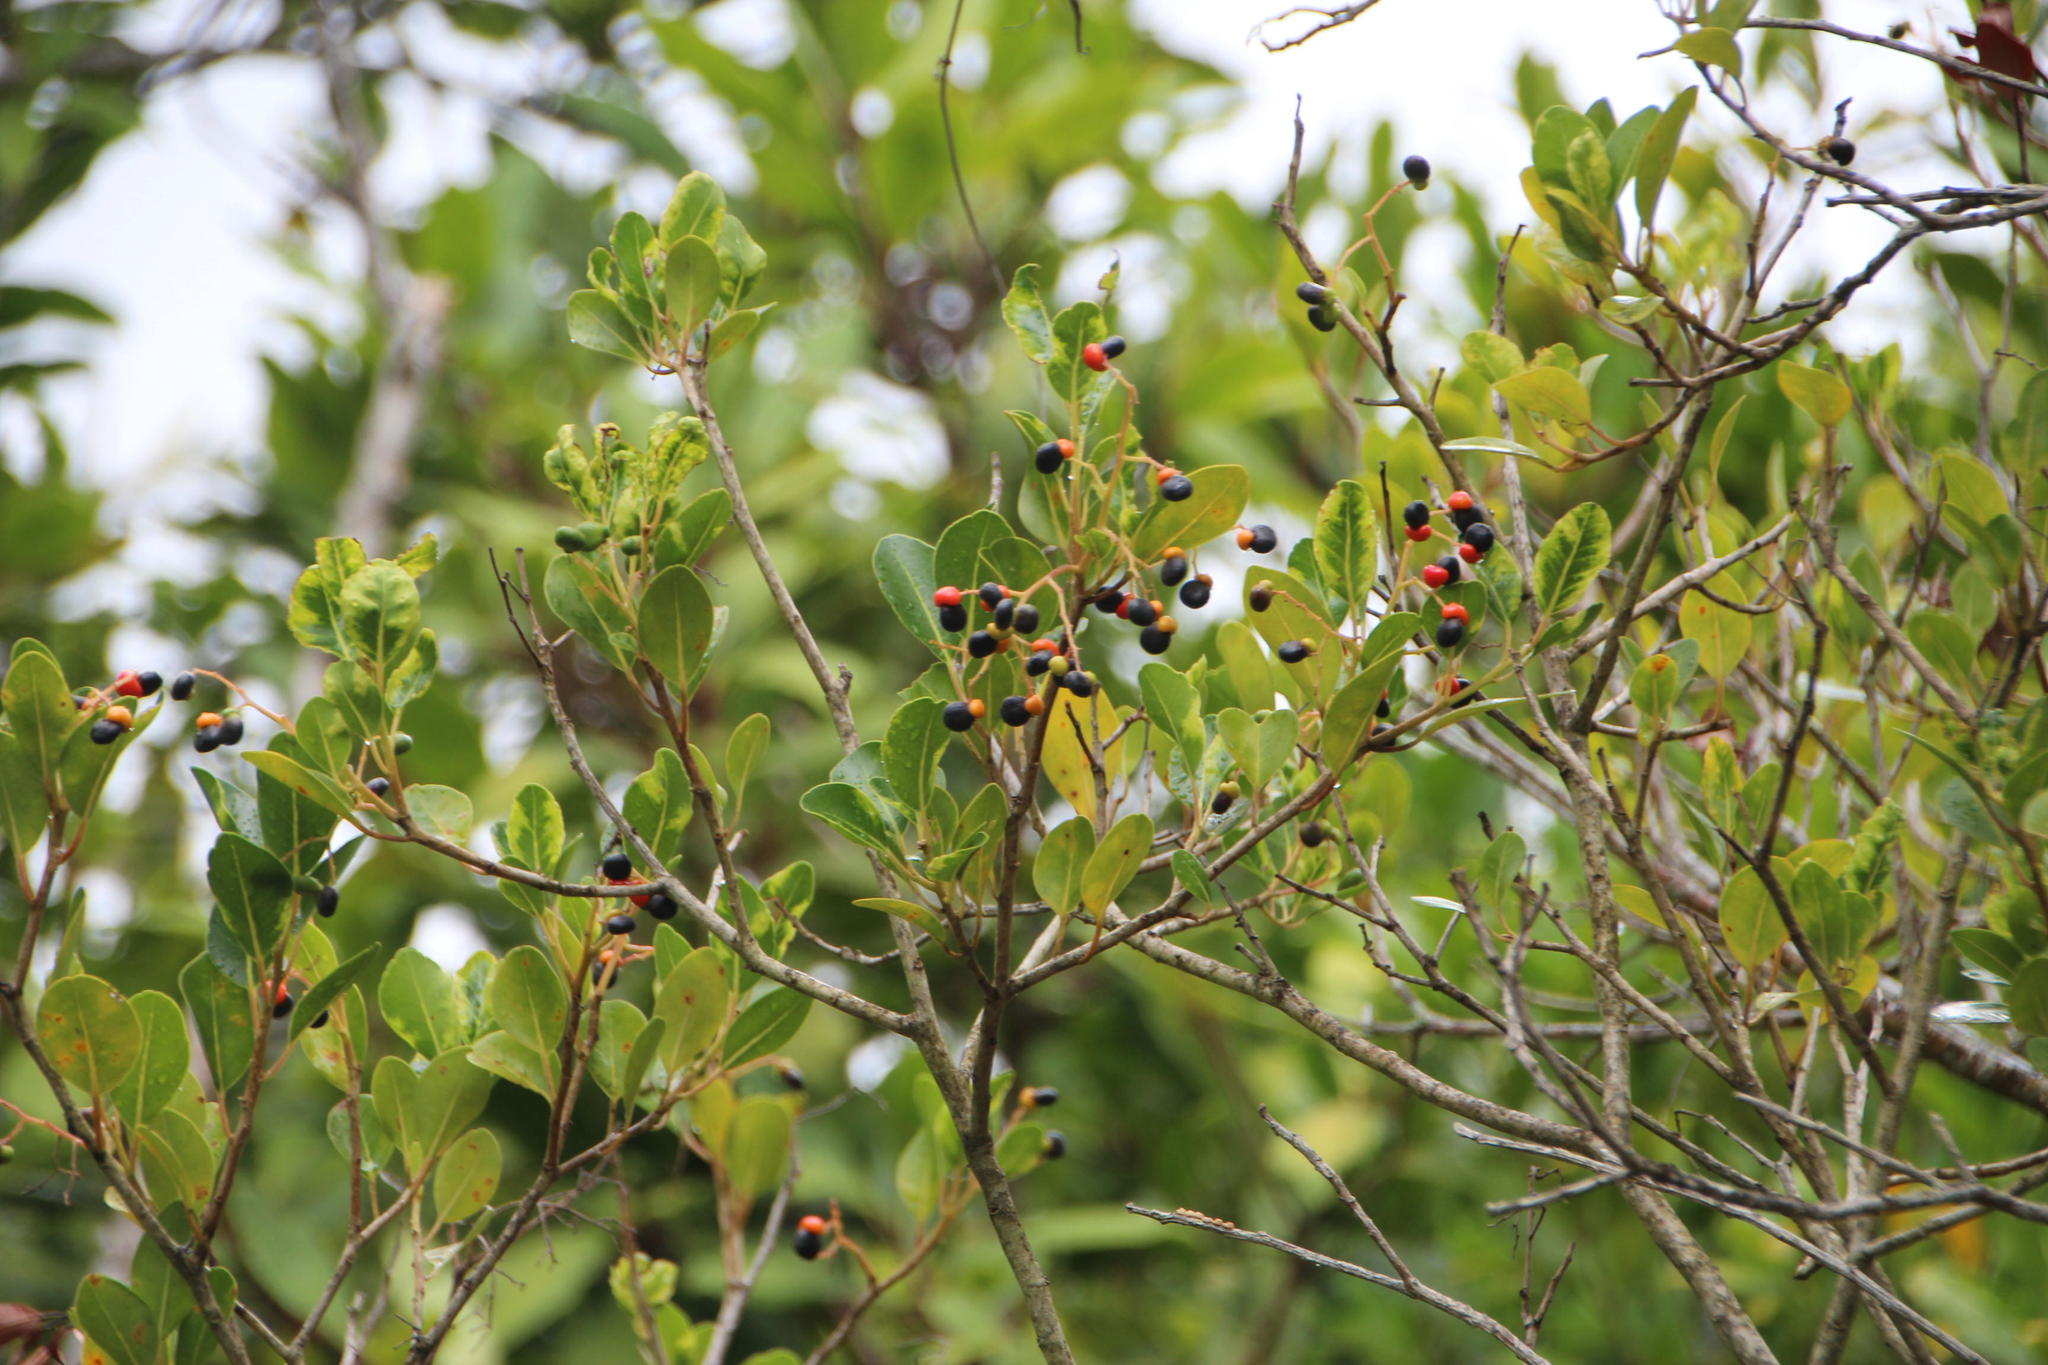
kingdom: Plantae
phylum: Tracheophyta
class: Magnoliopsida
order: Metteniusales
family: Metteniusaceae
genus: Apodytes
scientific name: Apodytes dimidiata
